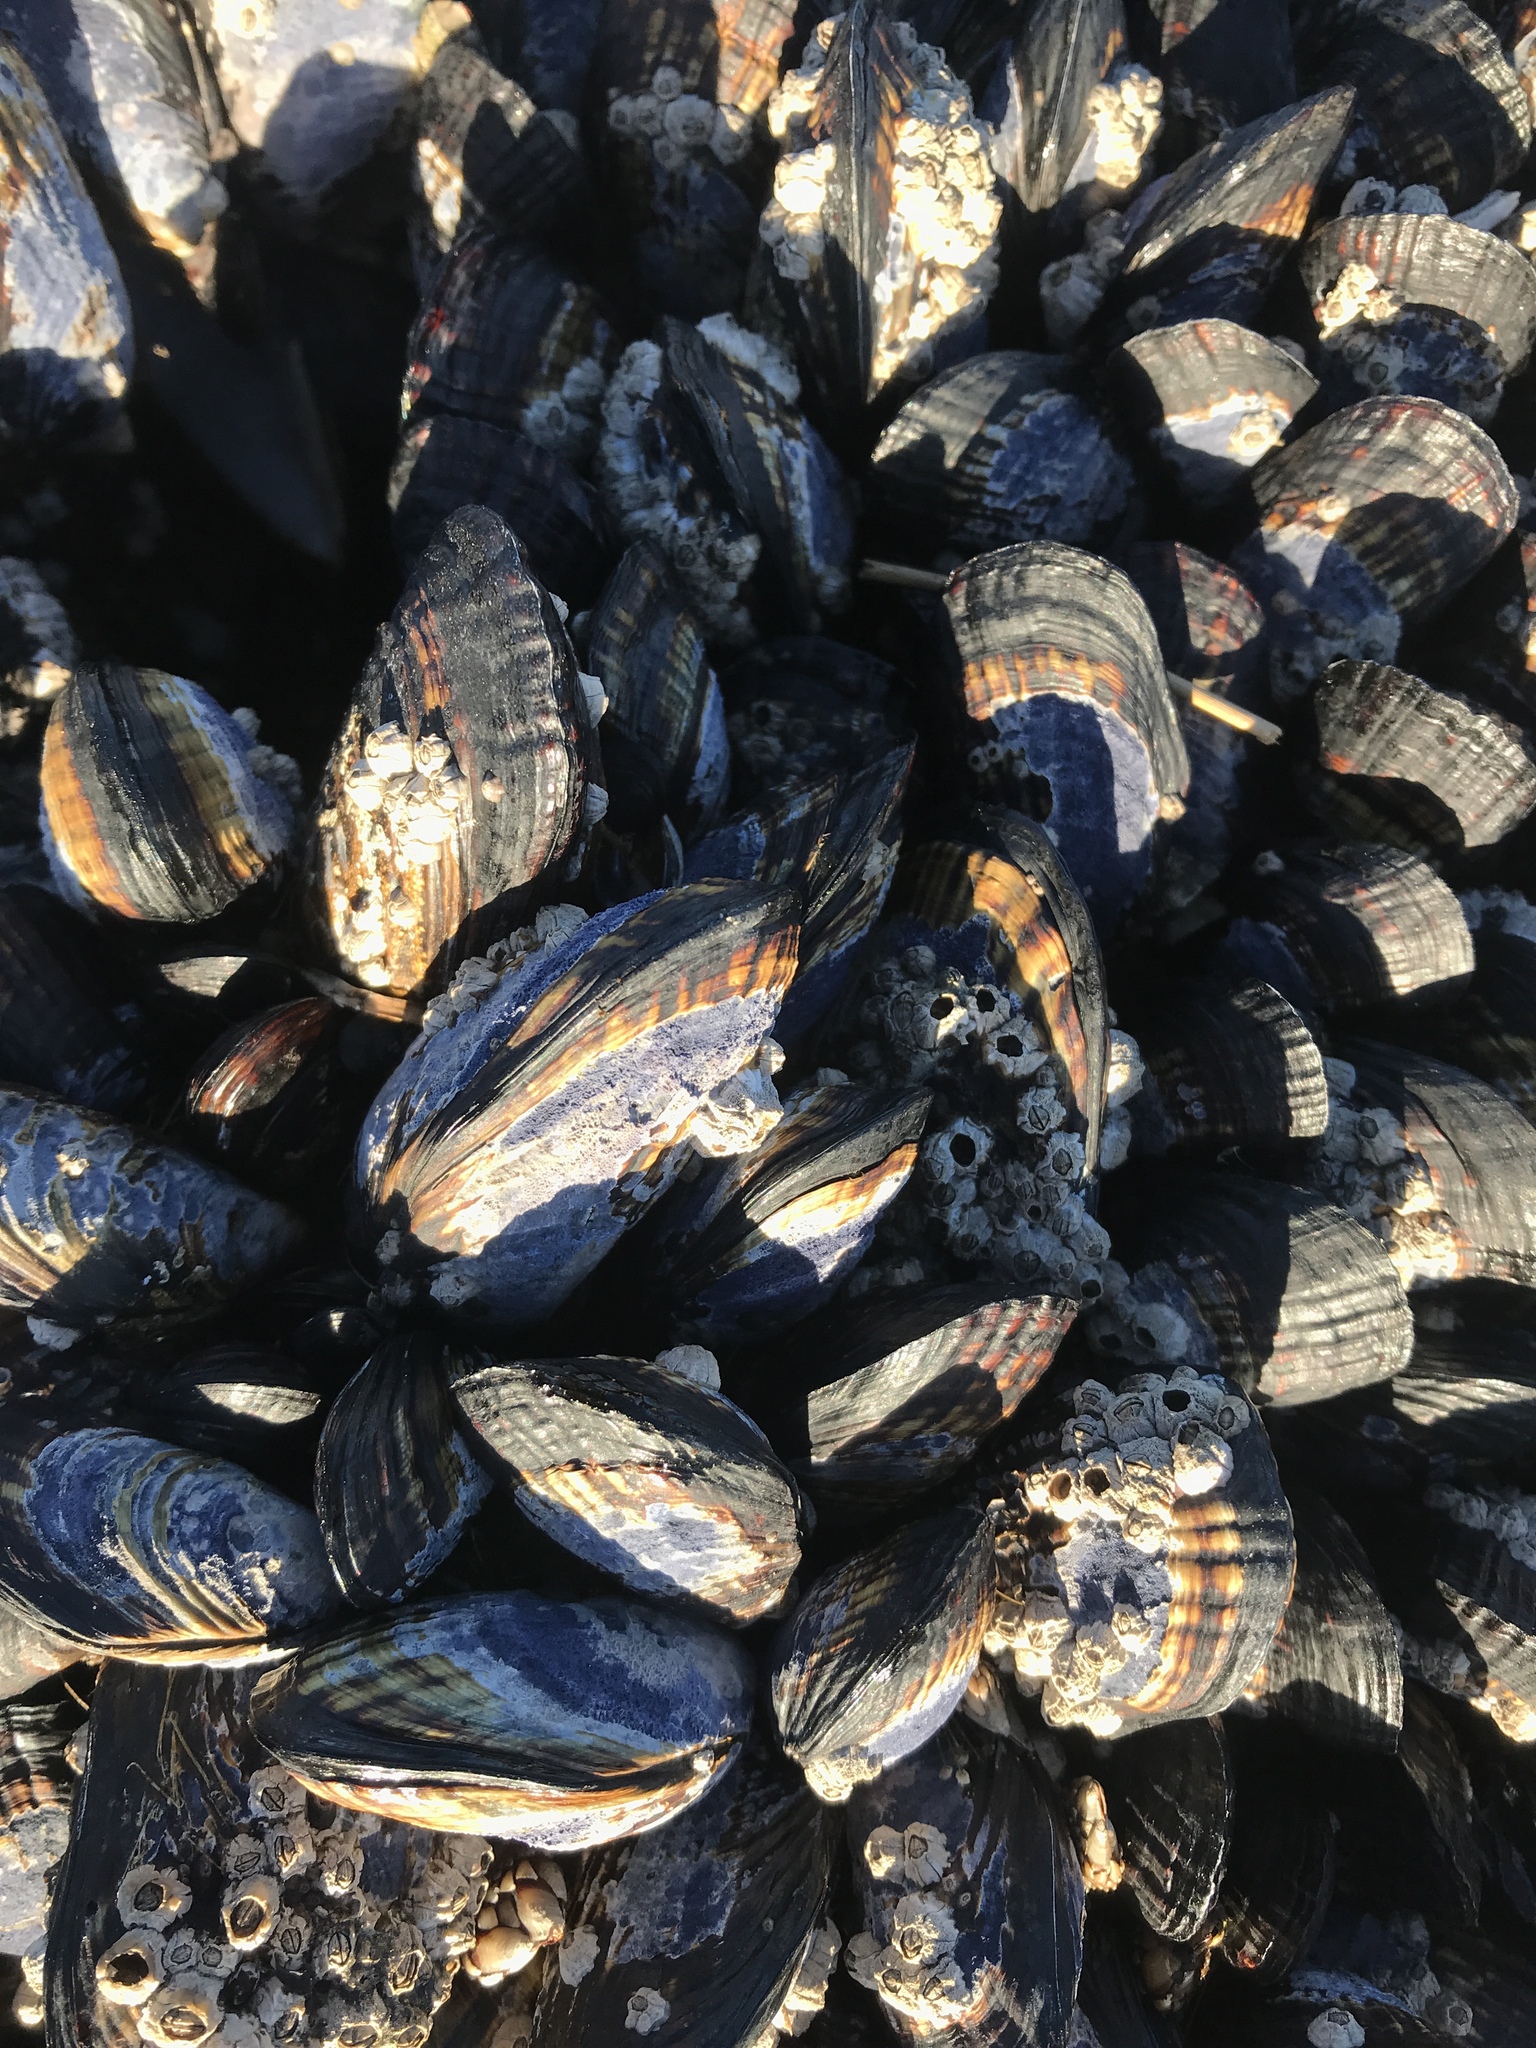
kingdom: Animalia
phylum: Mollusca
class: Bivalvia
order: Mytilida
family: Mytilidae
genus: Mytilus
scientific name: Mytilus californianus
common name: California mussel
